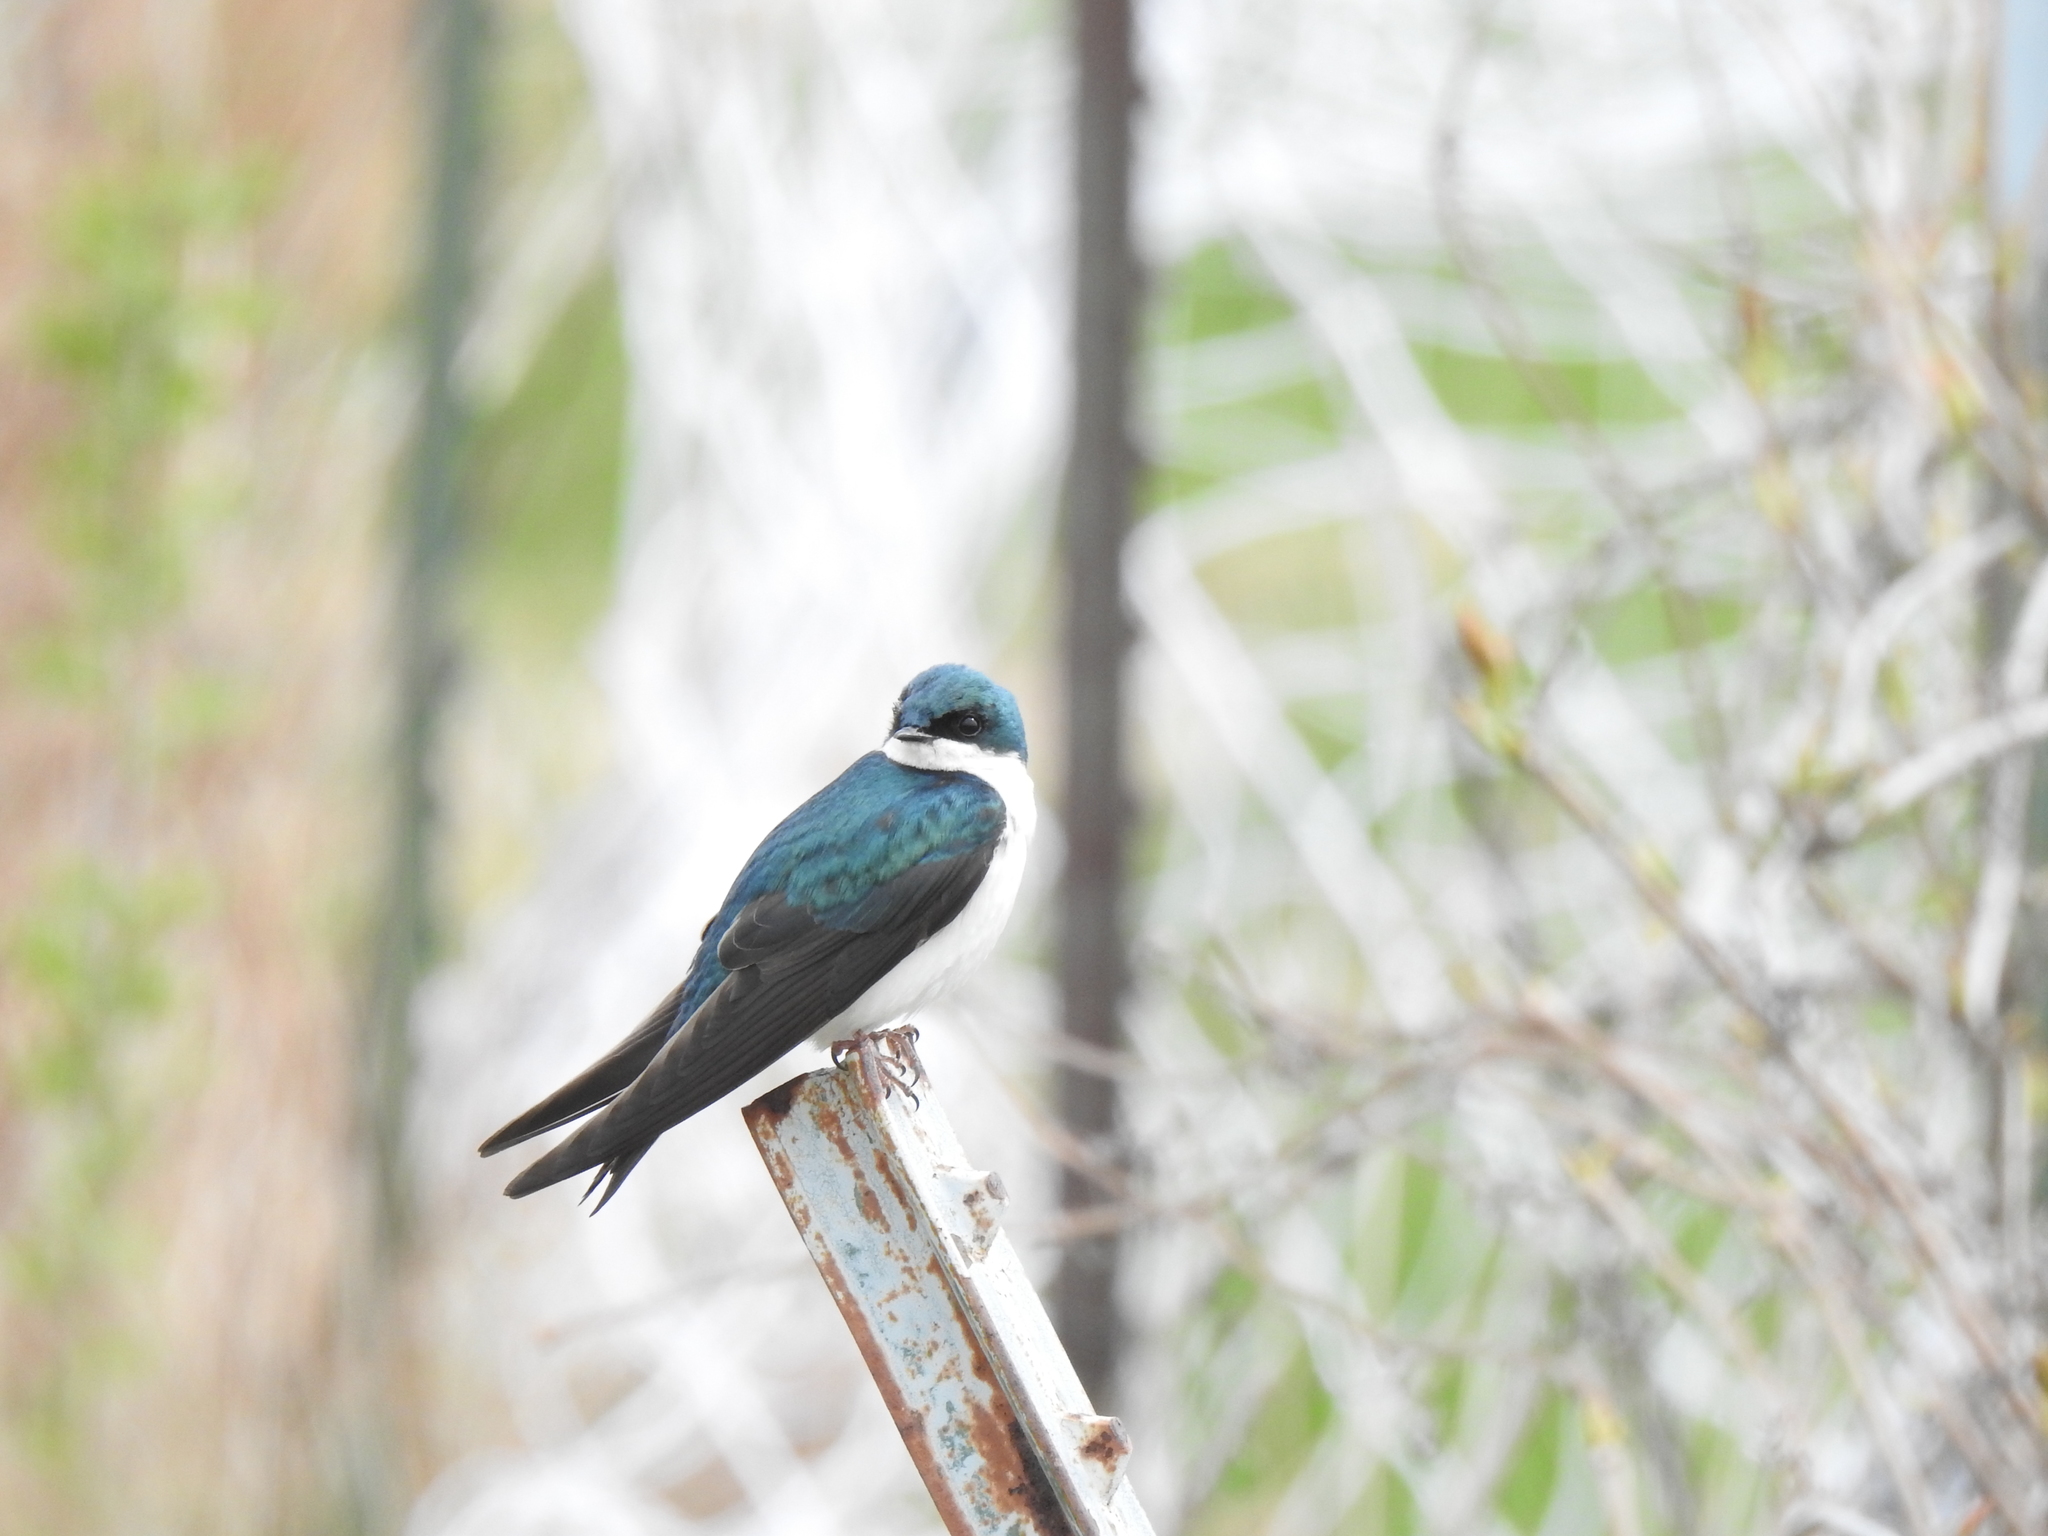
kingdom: Animalia
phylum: Chordata
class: Aves
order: Passeriformes
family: Hirundinidae
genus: Tachycineta
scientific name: Tachycineta bicolor
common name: Tree swallow
